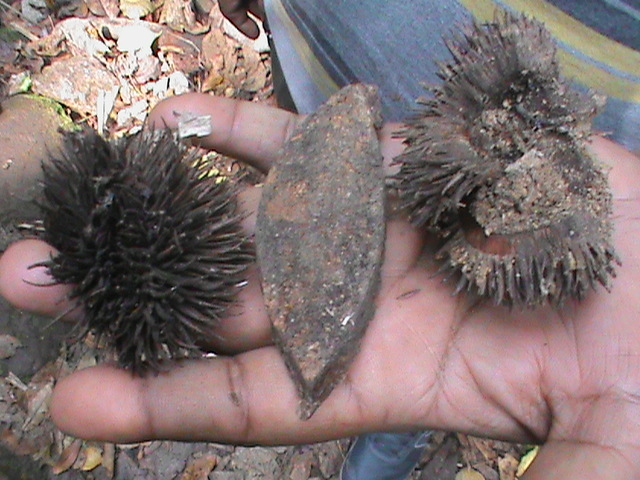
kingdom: Plantae
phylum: Tracheophyta
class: Magnoliopsida
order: Malvales
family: Malvaceae
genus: Cullenia
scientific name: Cullenia exarillata
